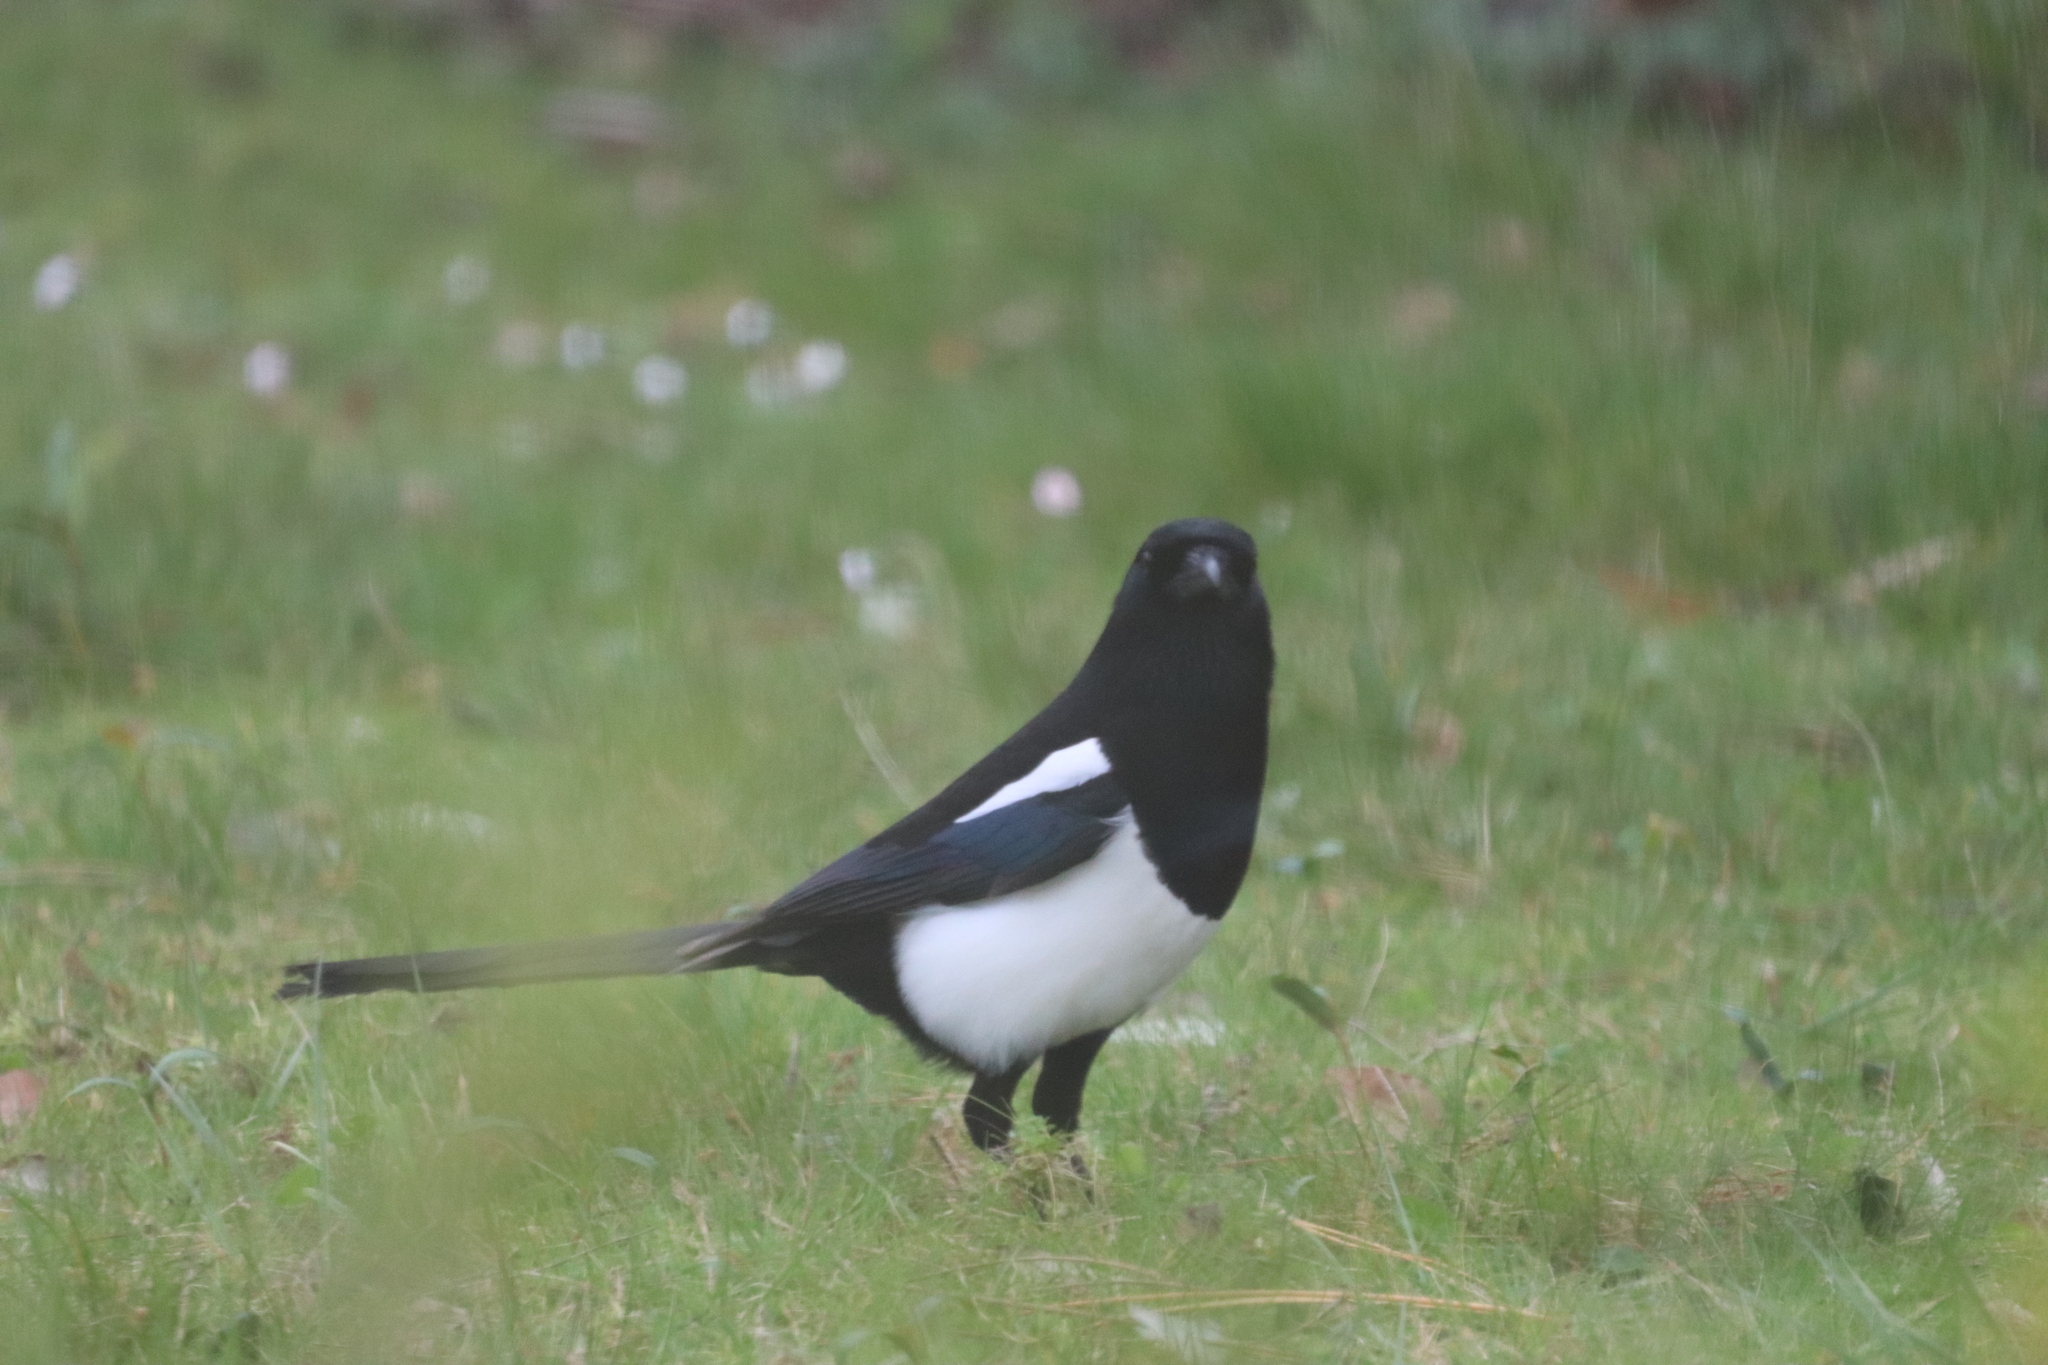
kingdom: Animalia
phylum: Chordata
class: Aves
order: Passeriformes
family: Corvidae
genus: Pica
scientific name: Pica pica
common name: Eurasian magpie
